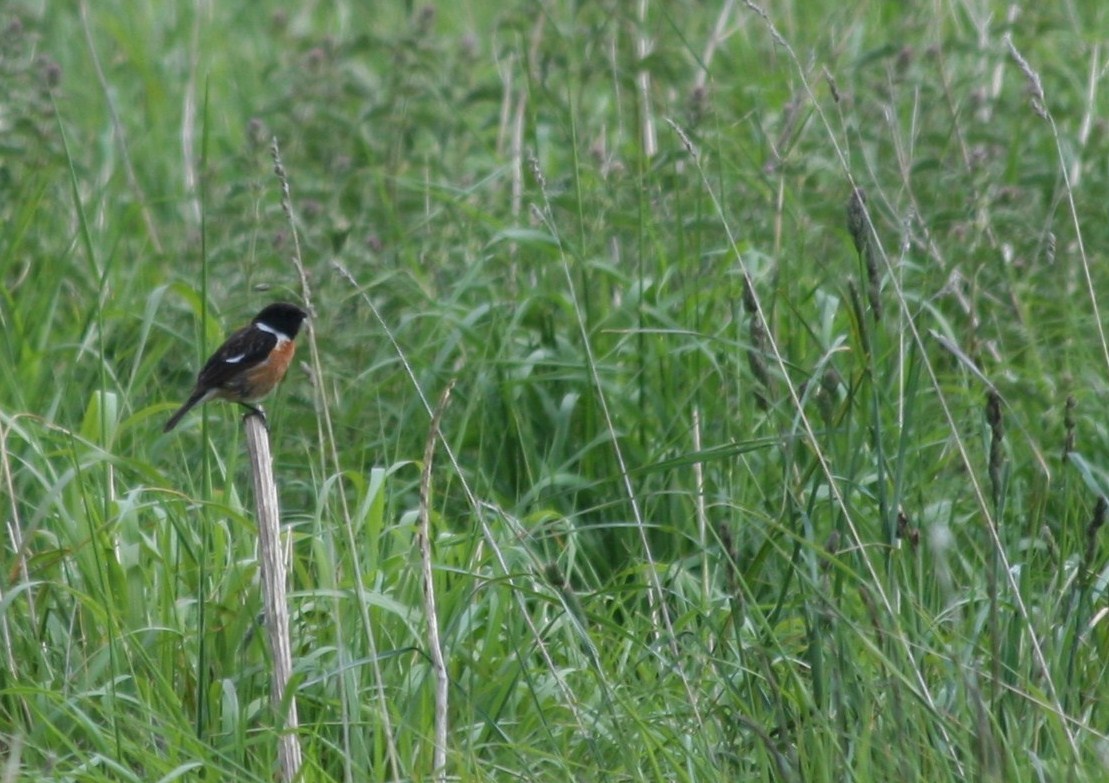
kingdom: Animalia
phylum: Chordata
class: Aves
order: Passeriformes
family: Muscicapidae
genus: Saxicola
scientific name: Saxicola rubicola
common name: European stonechat
